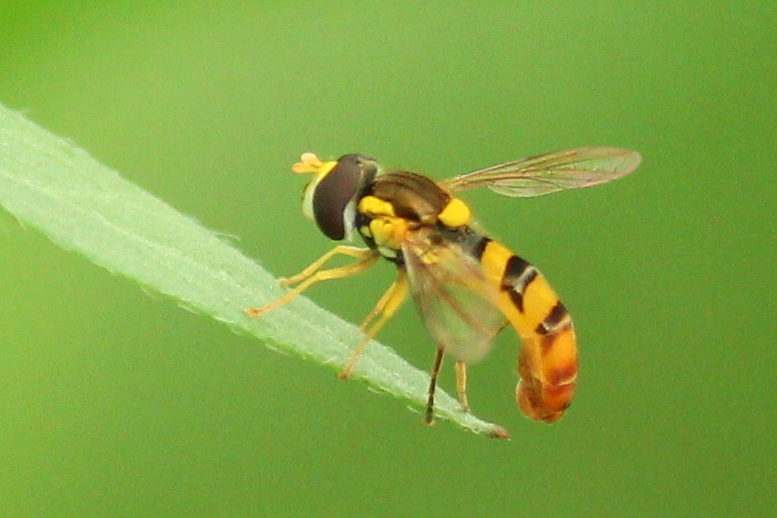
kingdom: Animalia
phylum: Arthropoda
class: Insecta
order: Diptera
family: Syrphidae
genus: Sphaerophoria
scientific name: Sphaerophoria contigua
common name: Tufted globetail
